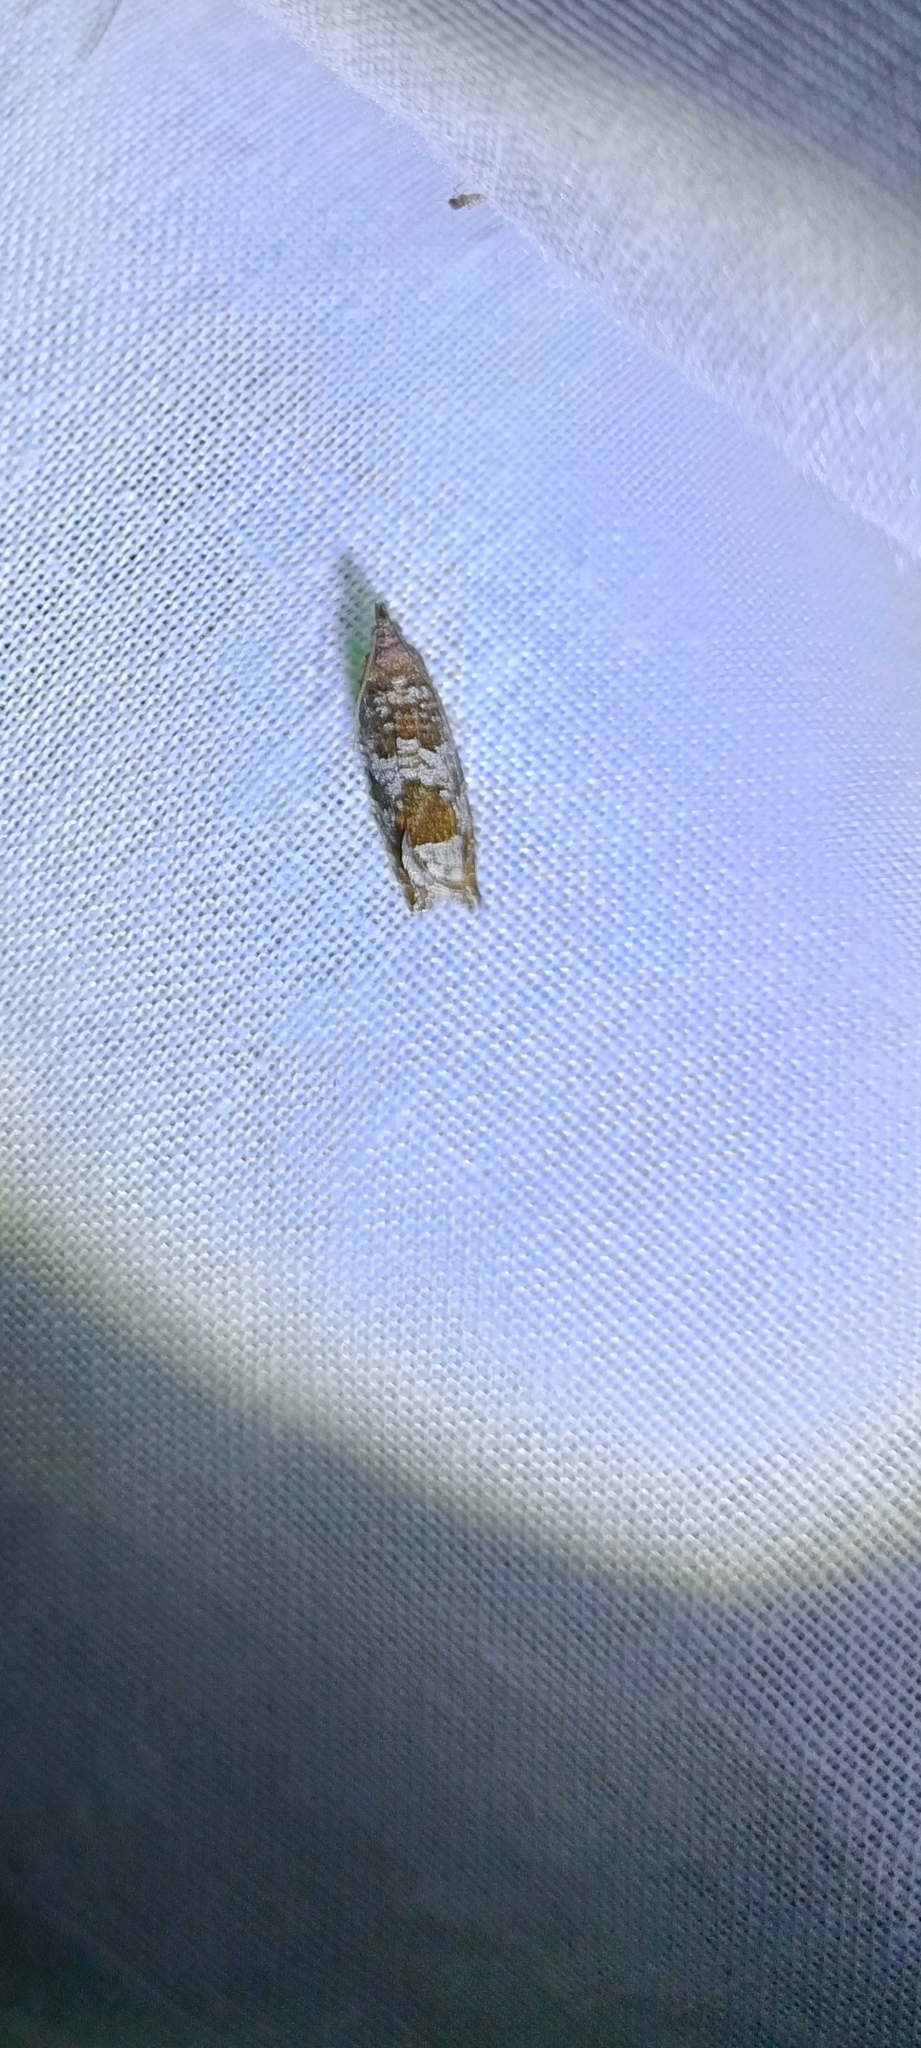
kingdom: Animalia
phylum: Arthropoda
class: Insecta
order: Lepidoptera
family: Tortricidae
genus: Ancylis
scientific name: Ancylis achatana
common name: Triangle-marked roller
